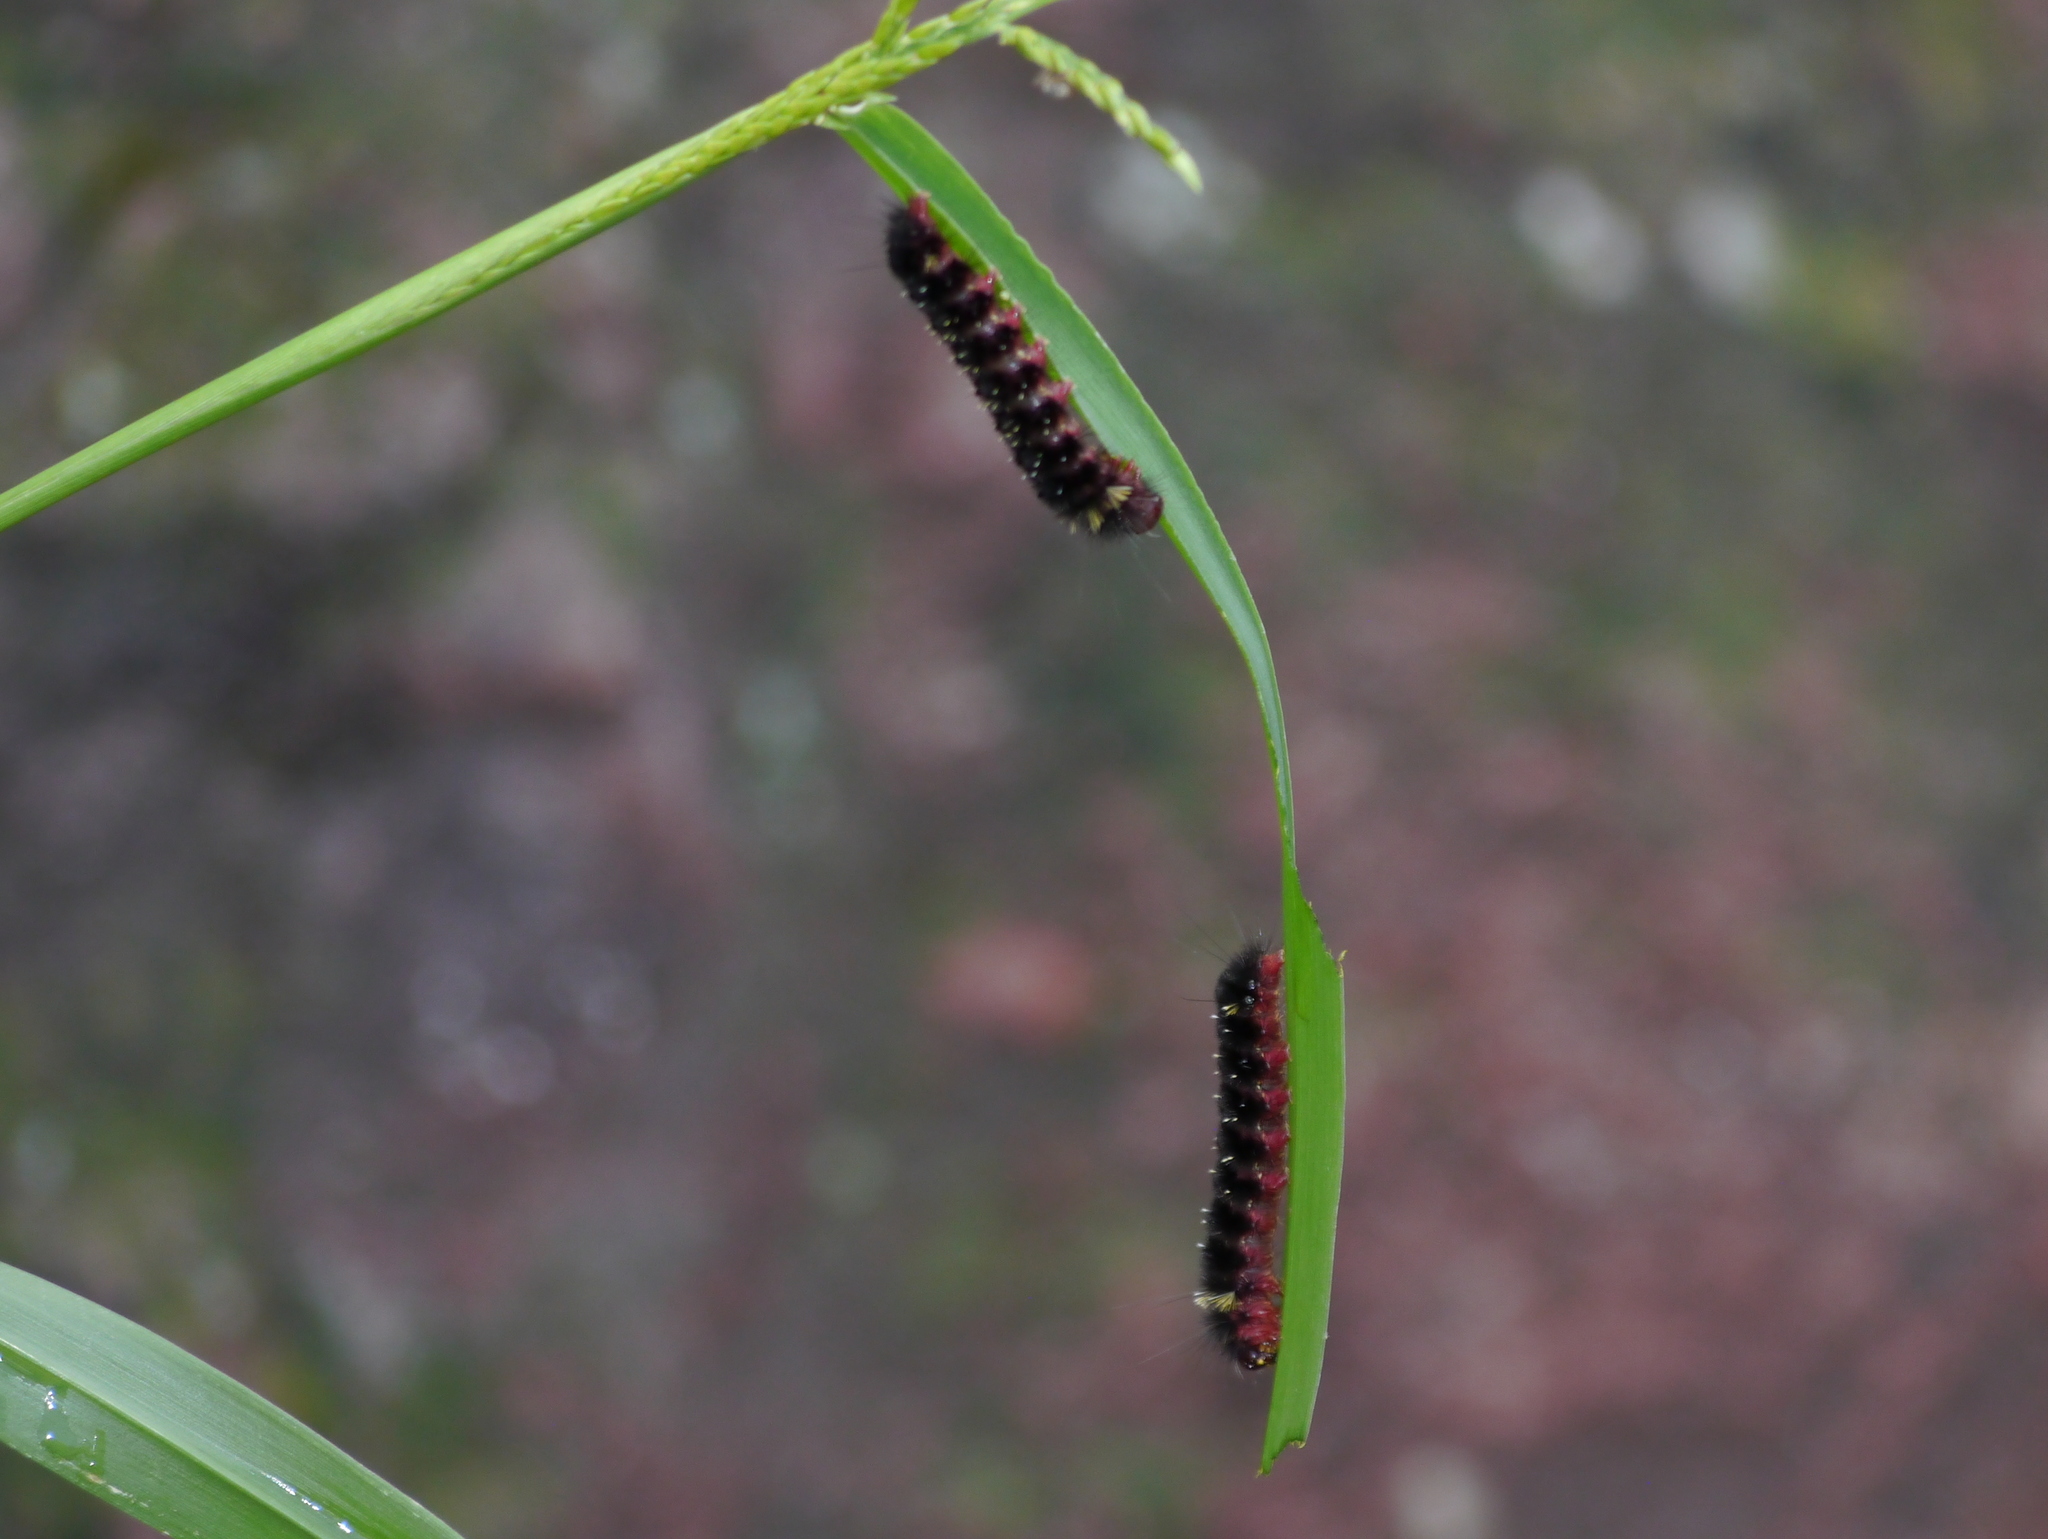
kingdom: Animalia
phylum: Arthropoda
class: Insecta
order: Lepidoptera
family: Erebidae
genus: Hypocrisias
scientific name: Hypocrisias minima
